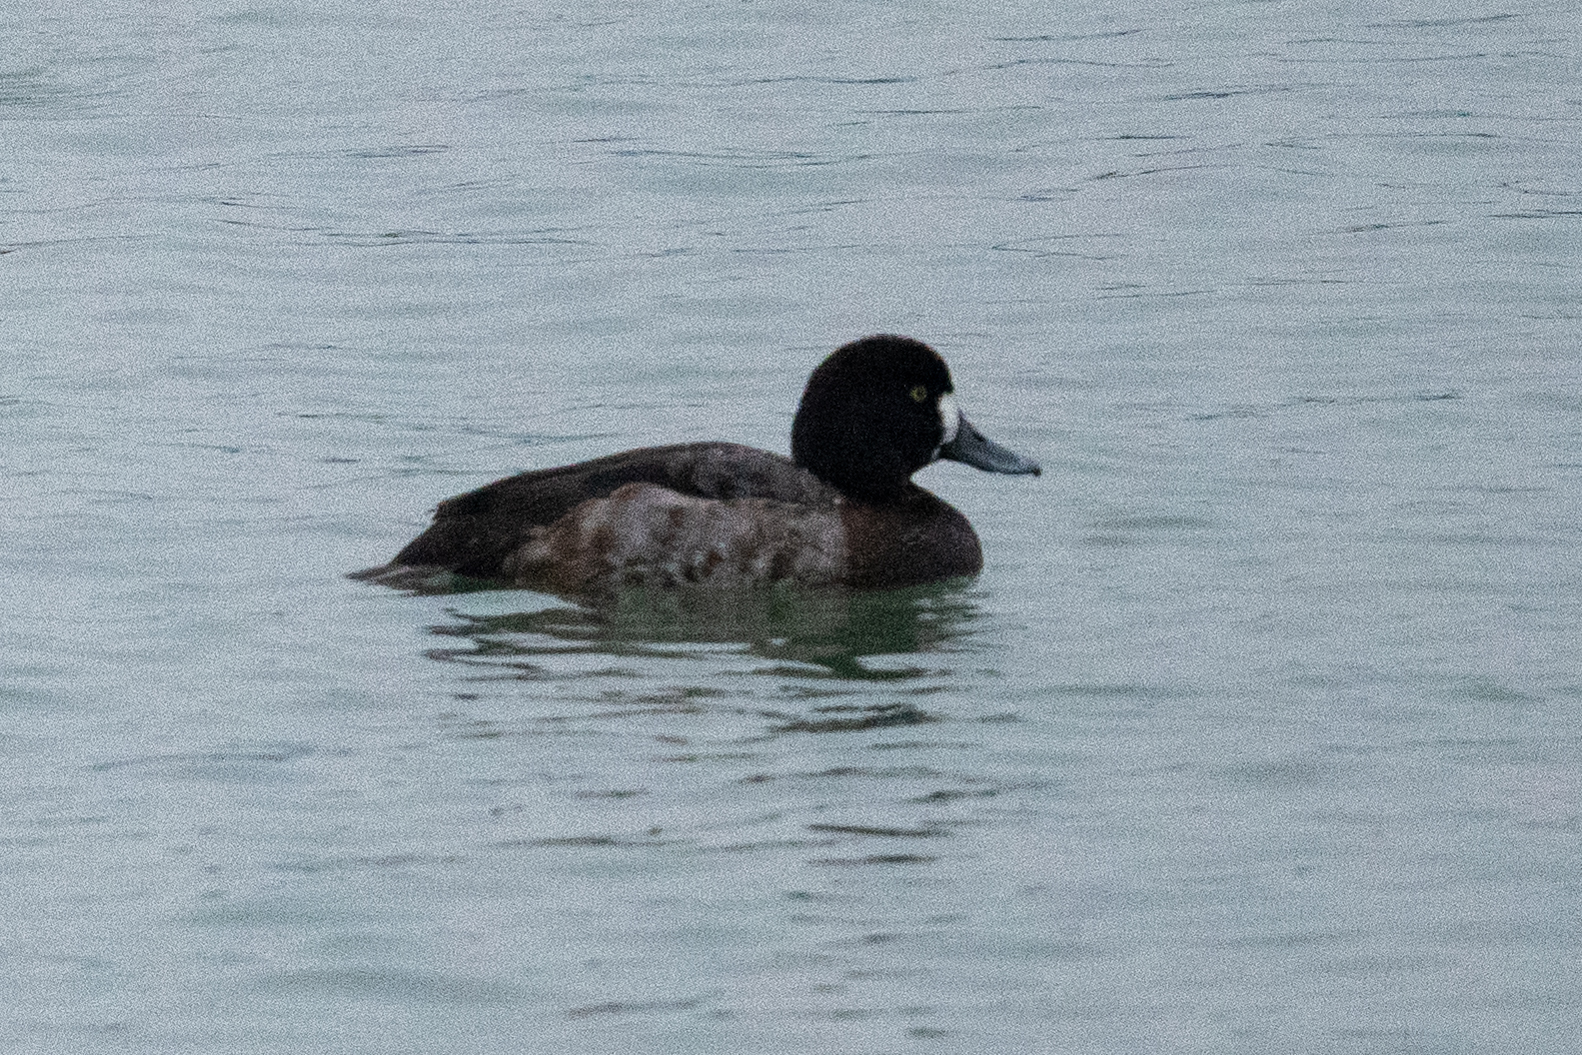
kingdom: Animalia
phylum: Chordata
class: Aves
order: Anseriformes
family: Anatidae
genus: Aythya
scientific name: Aythya marila
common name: Greater scaup
